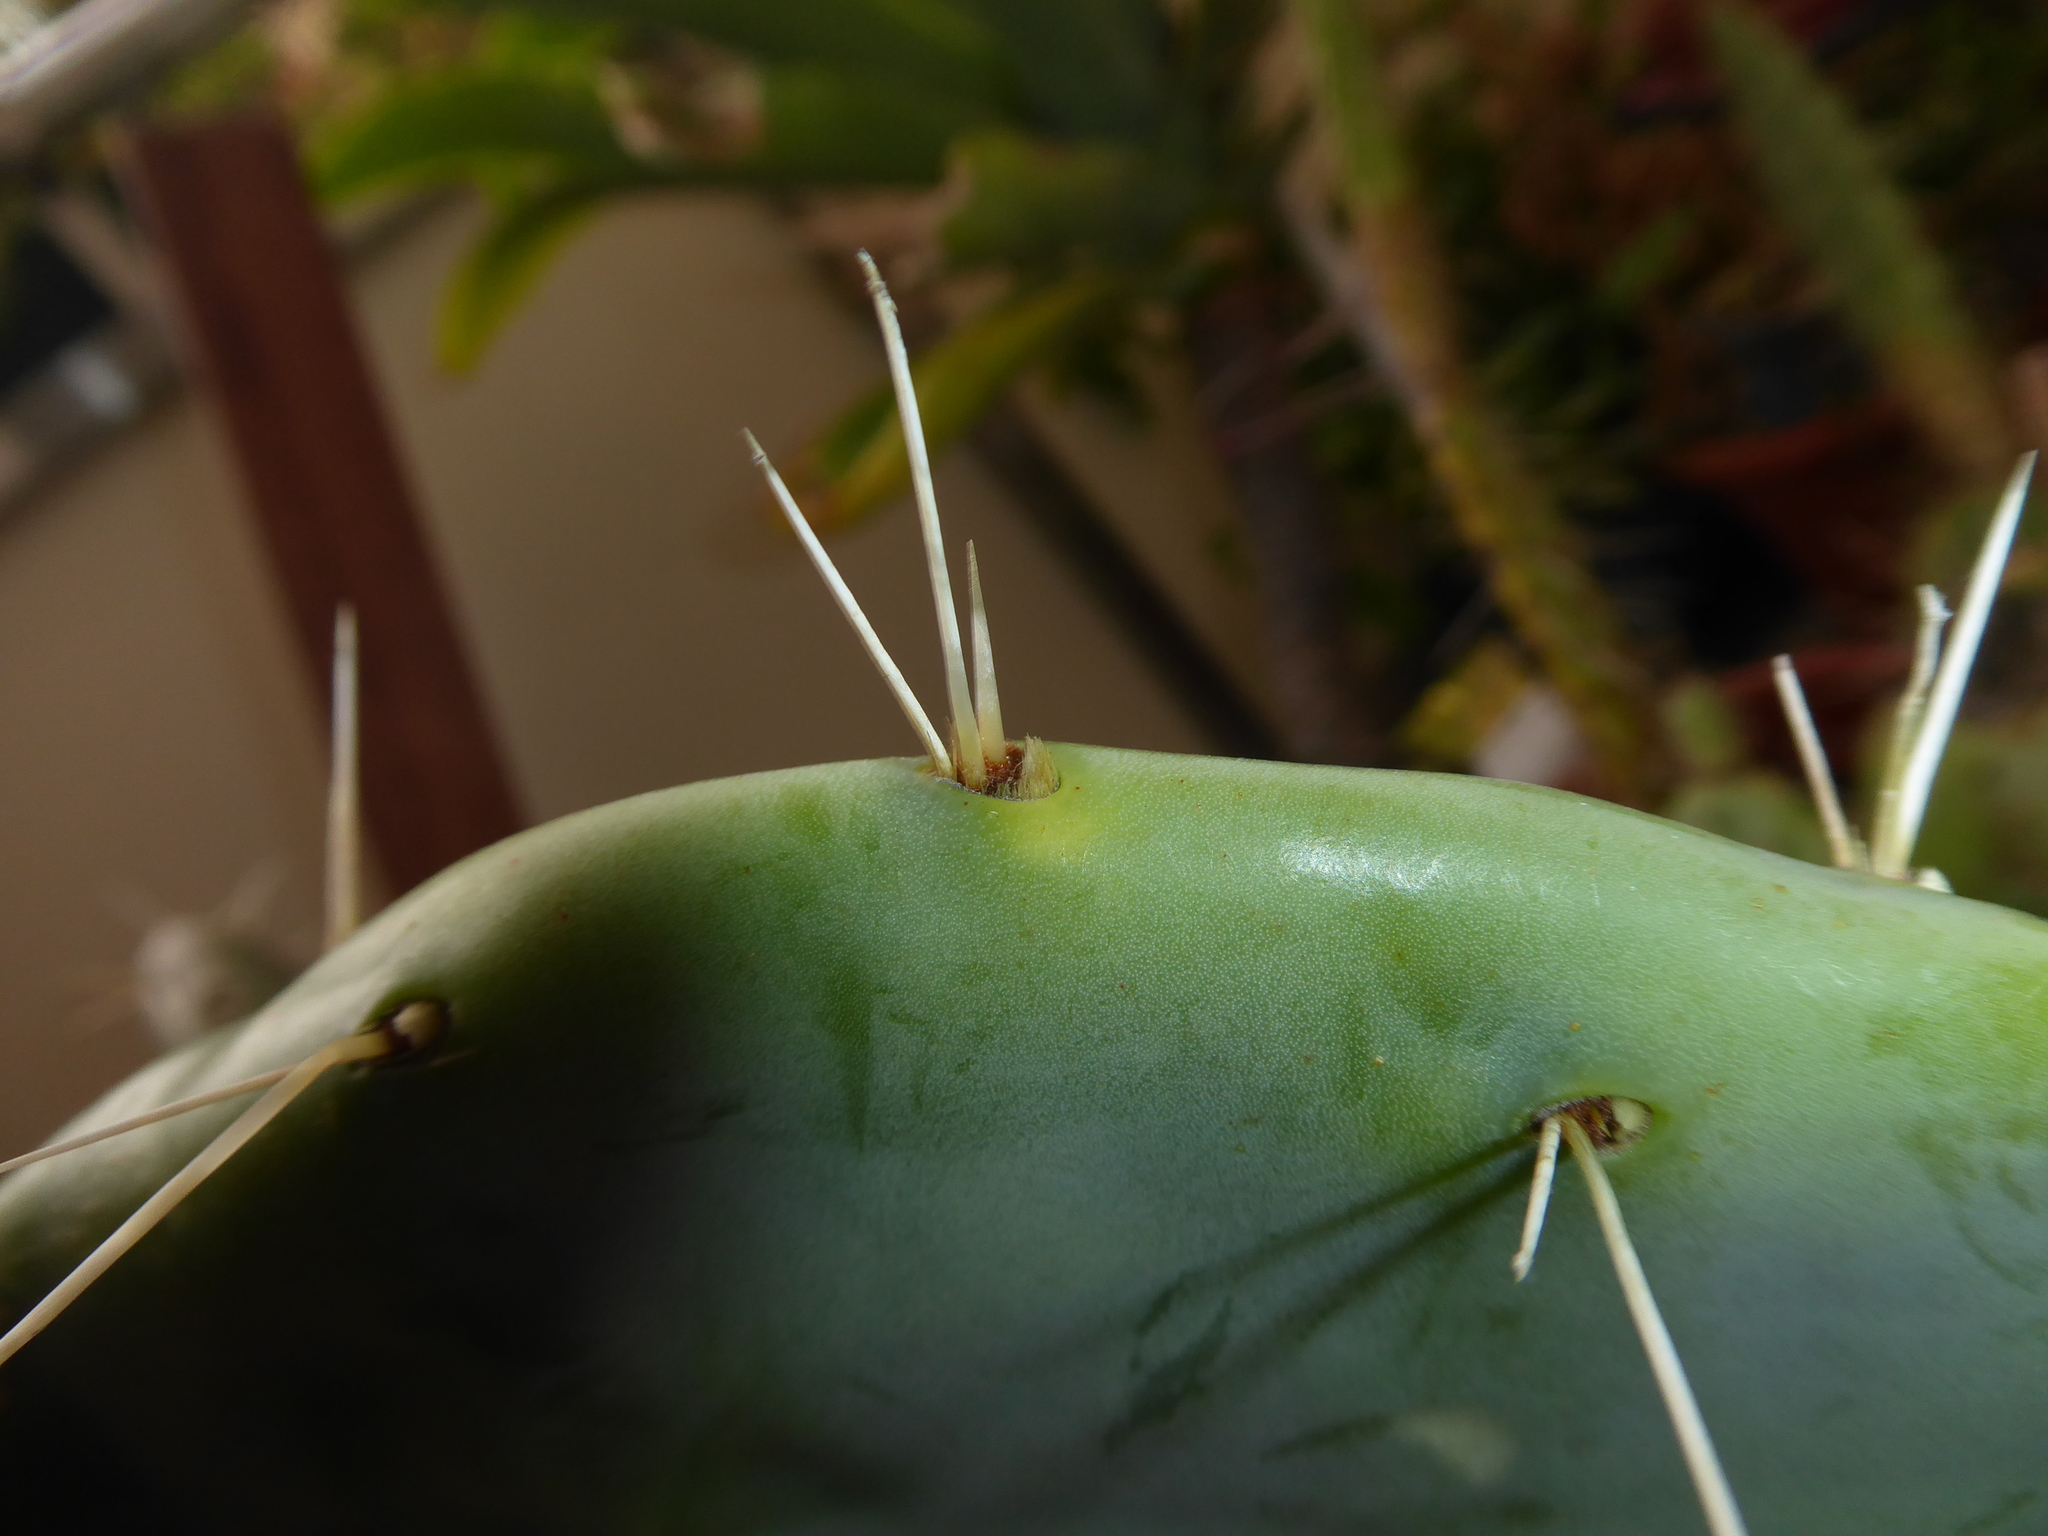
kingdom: Plantae
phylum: Tracheophyta
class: Magnoliopsida
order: Caryophyllales
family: Cactaceae
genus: Opuntia
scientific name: Opuntia robusta
